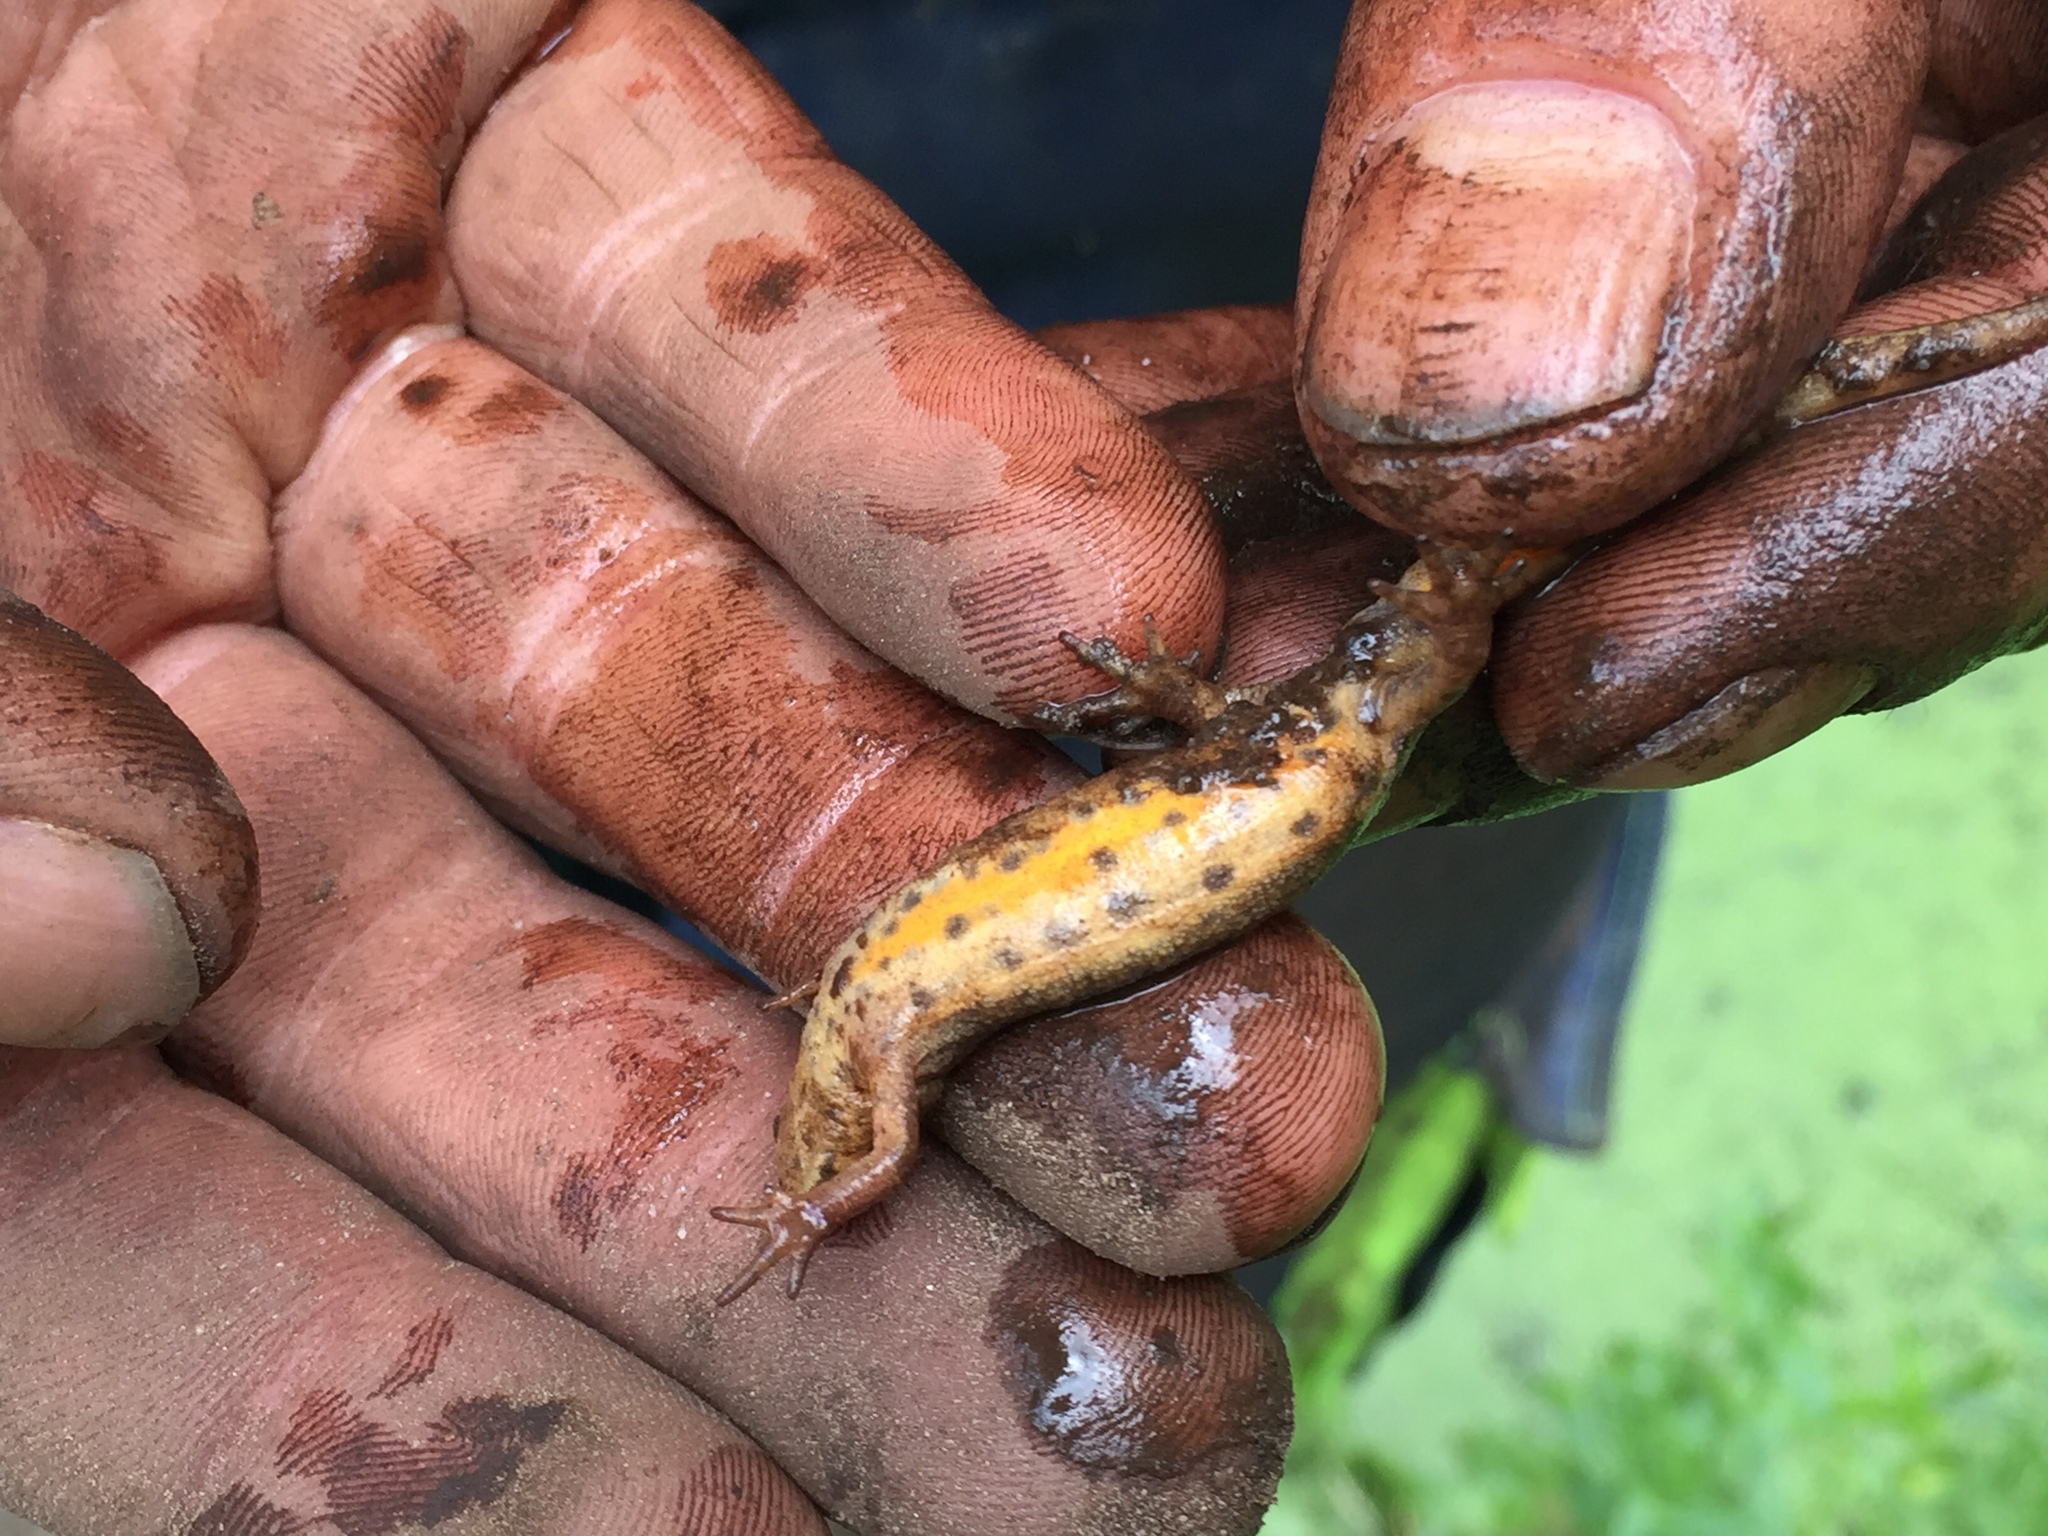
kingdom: Animalia
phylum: Chordata
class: Amphibia
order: Caudata
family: Salamandridae
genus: Lissotriton
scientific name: Lissotriton vulgaris
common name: Smooth newt
